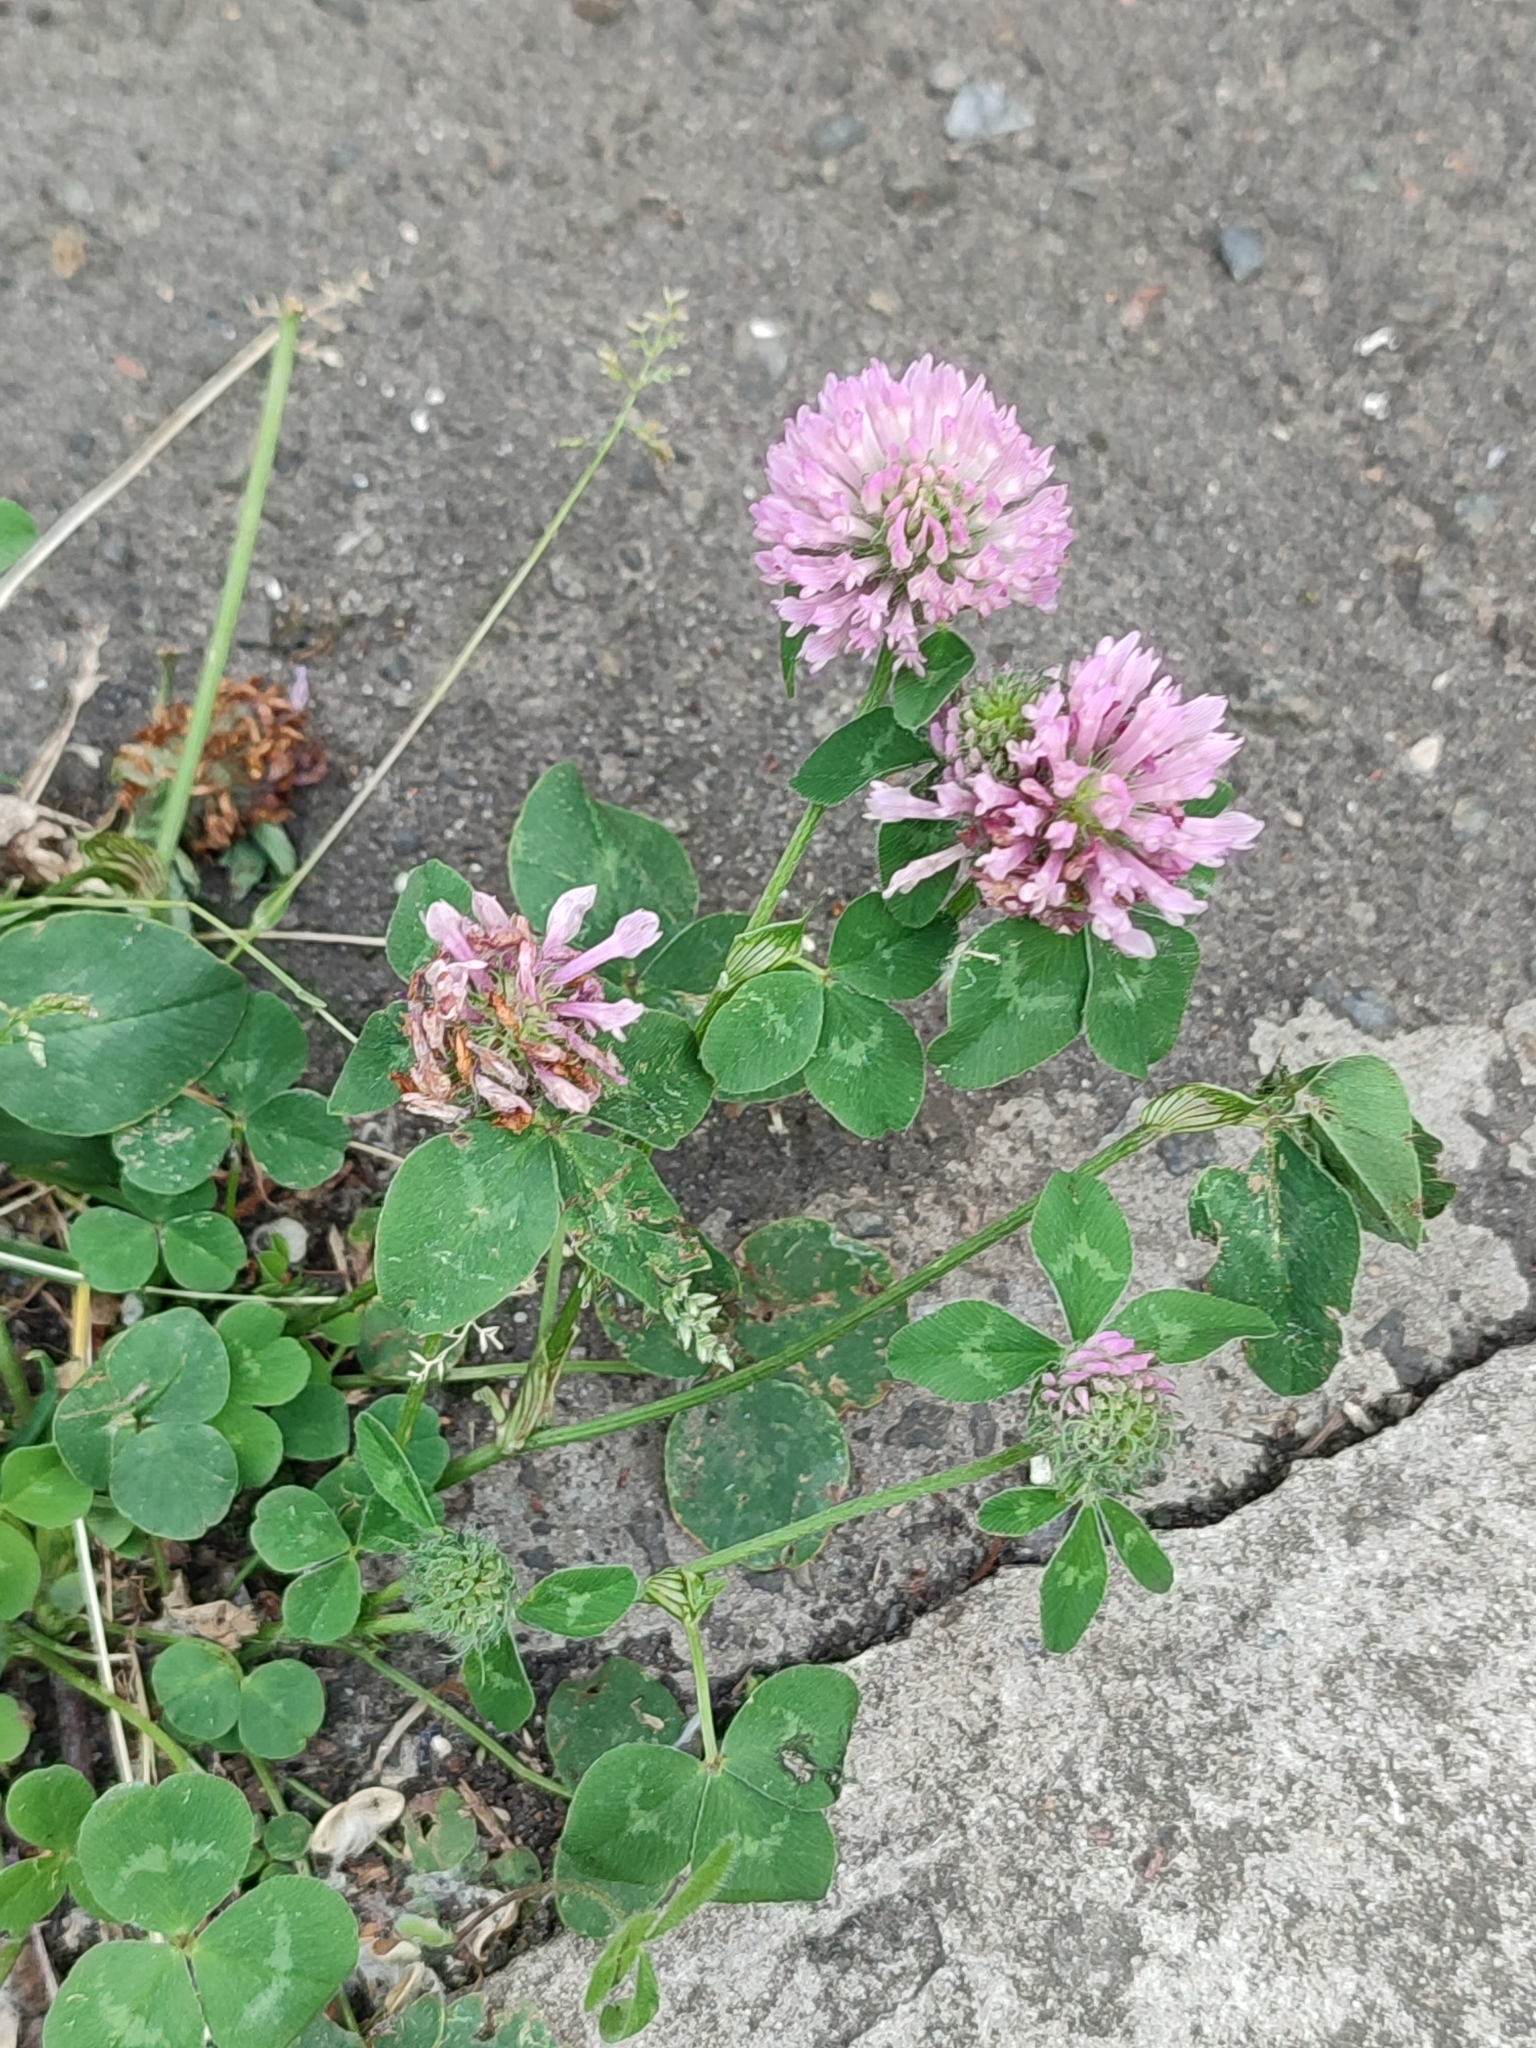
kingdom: Plantae
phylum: Tracheophyta
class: Magnoliopsida
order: Fabales
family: Fabaceae
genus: Trifolium
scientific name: Trifolium pratense
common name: Red clover
